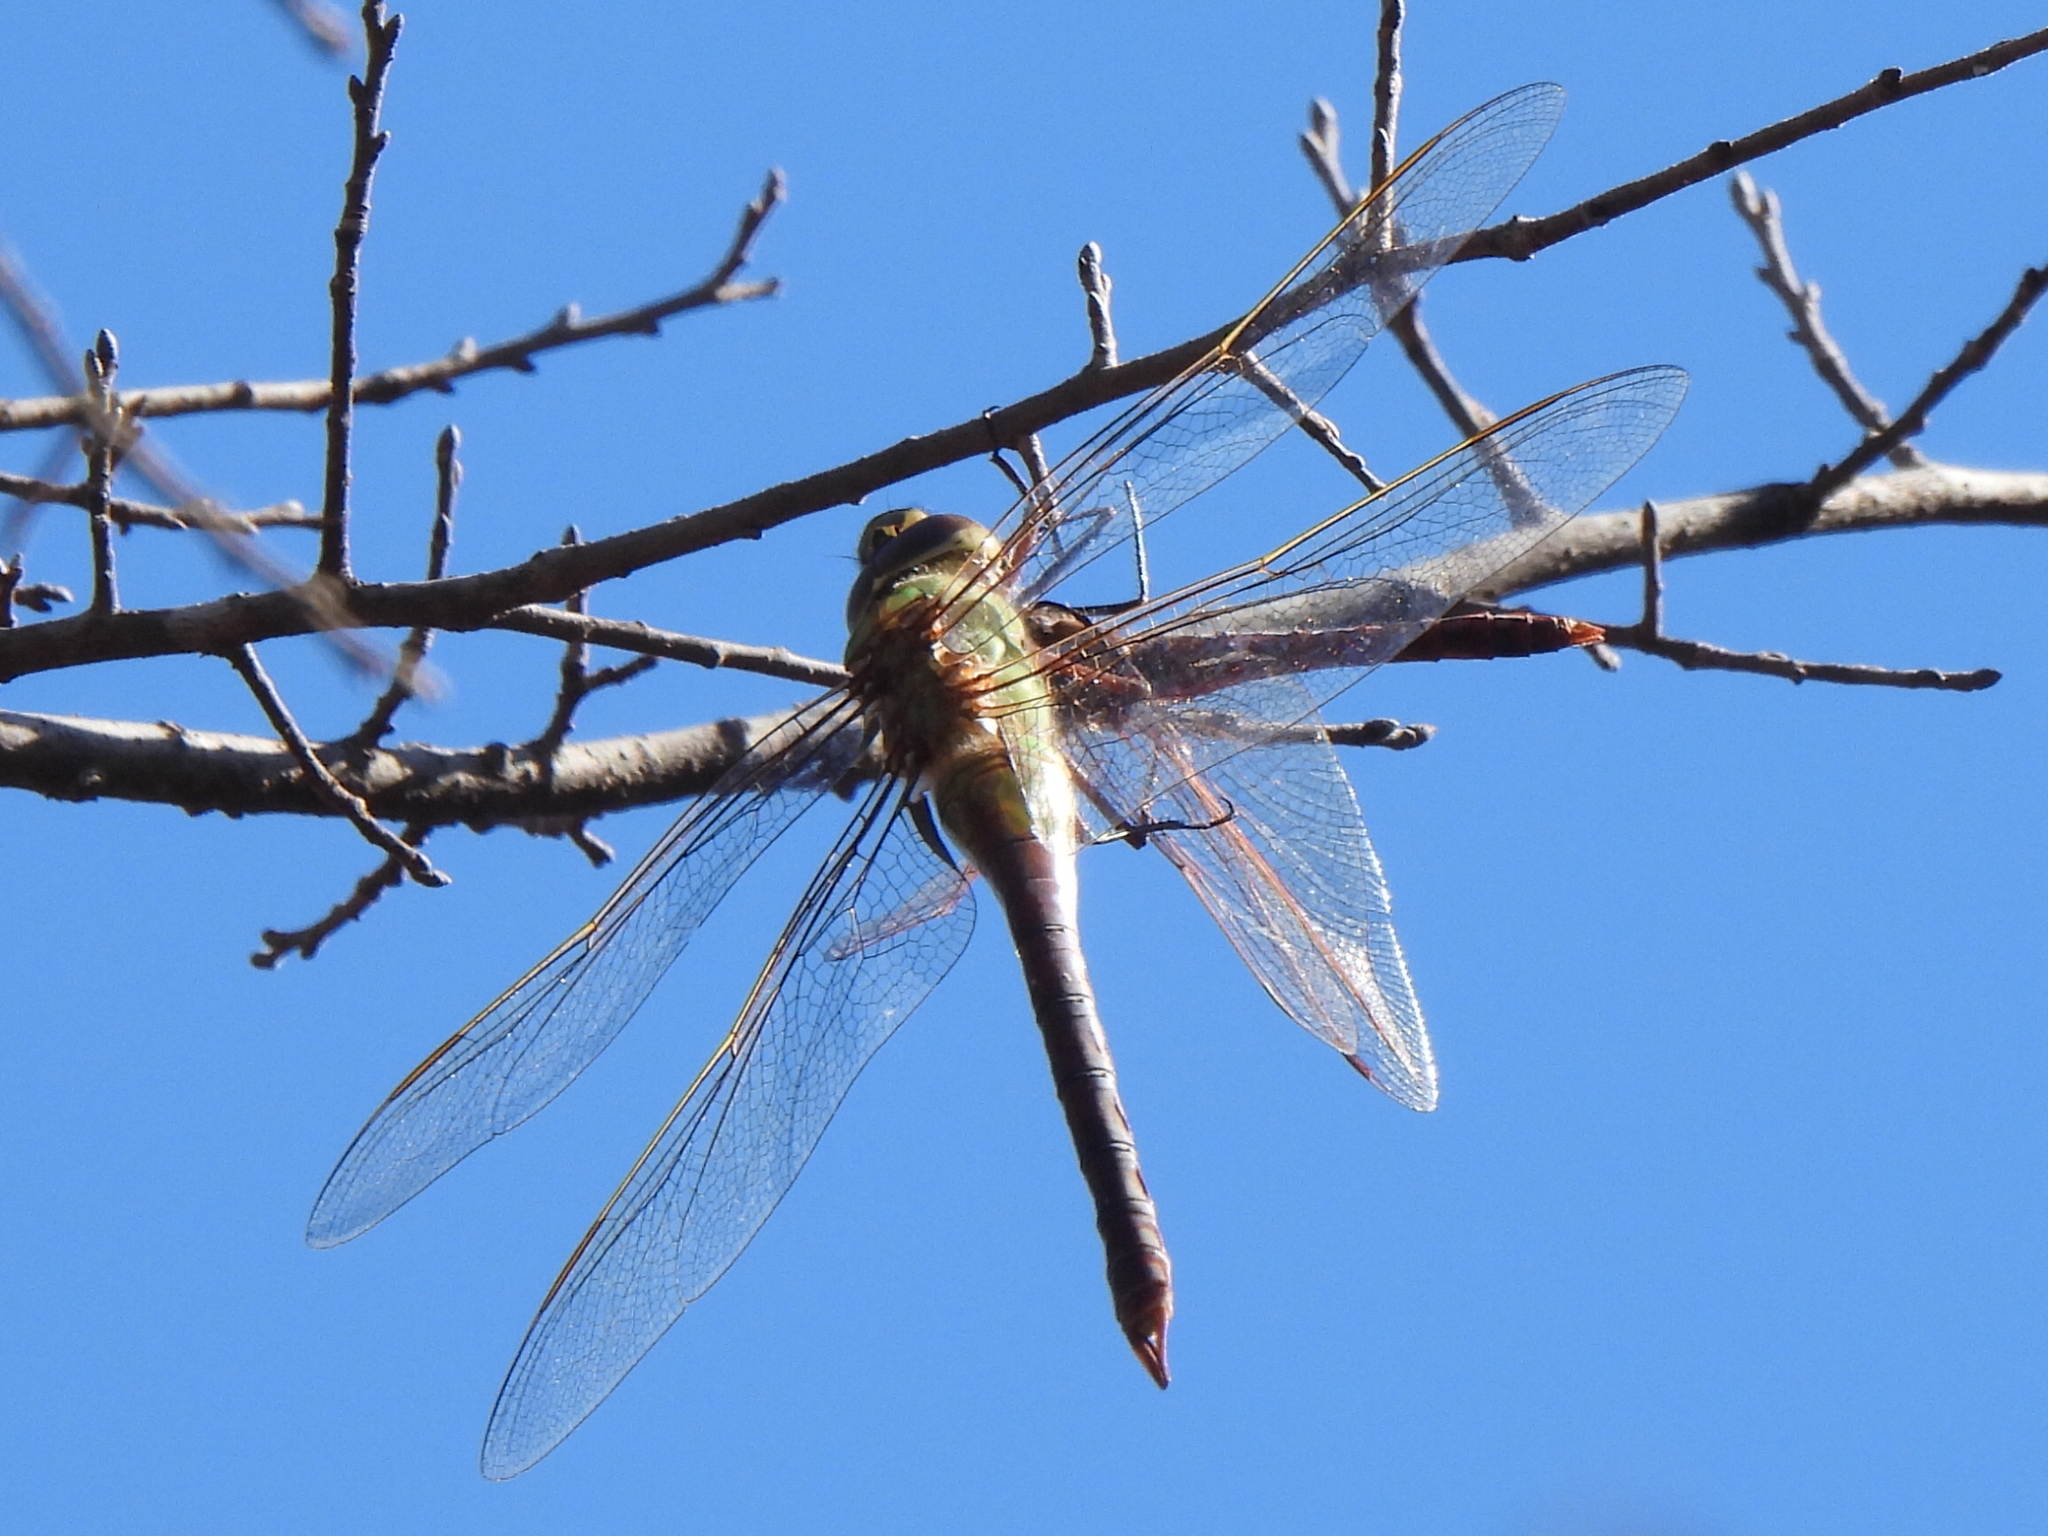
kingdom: Animalia
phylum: Arthropoda
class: Insecta
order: Odonata
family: Aeshnidae
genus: Anax
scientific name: Anax junius
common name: Common green darner
